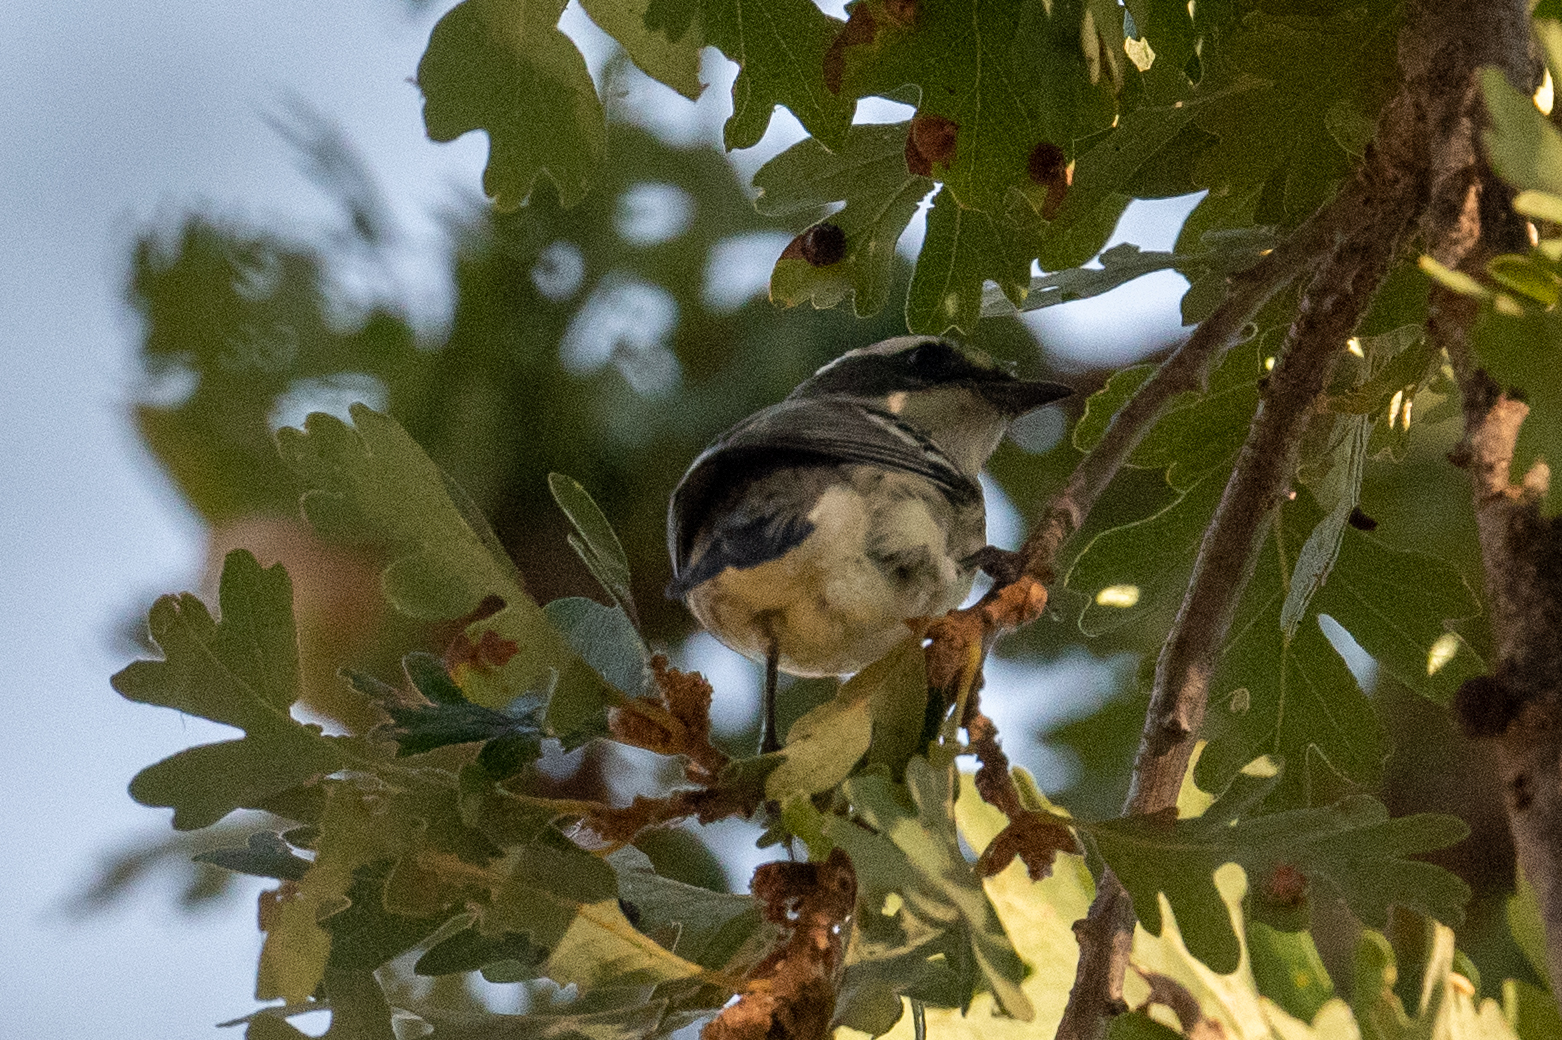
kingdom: Animalia
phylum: Chordata
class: Aves
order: Passeriformes
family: Parulidae
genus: Setophaga
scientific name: Setophaga nigrescens
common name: Black-throated gray warbler
